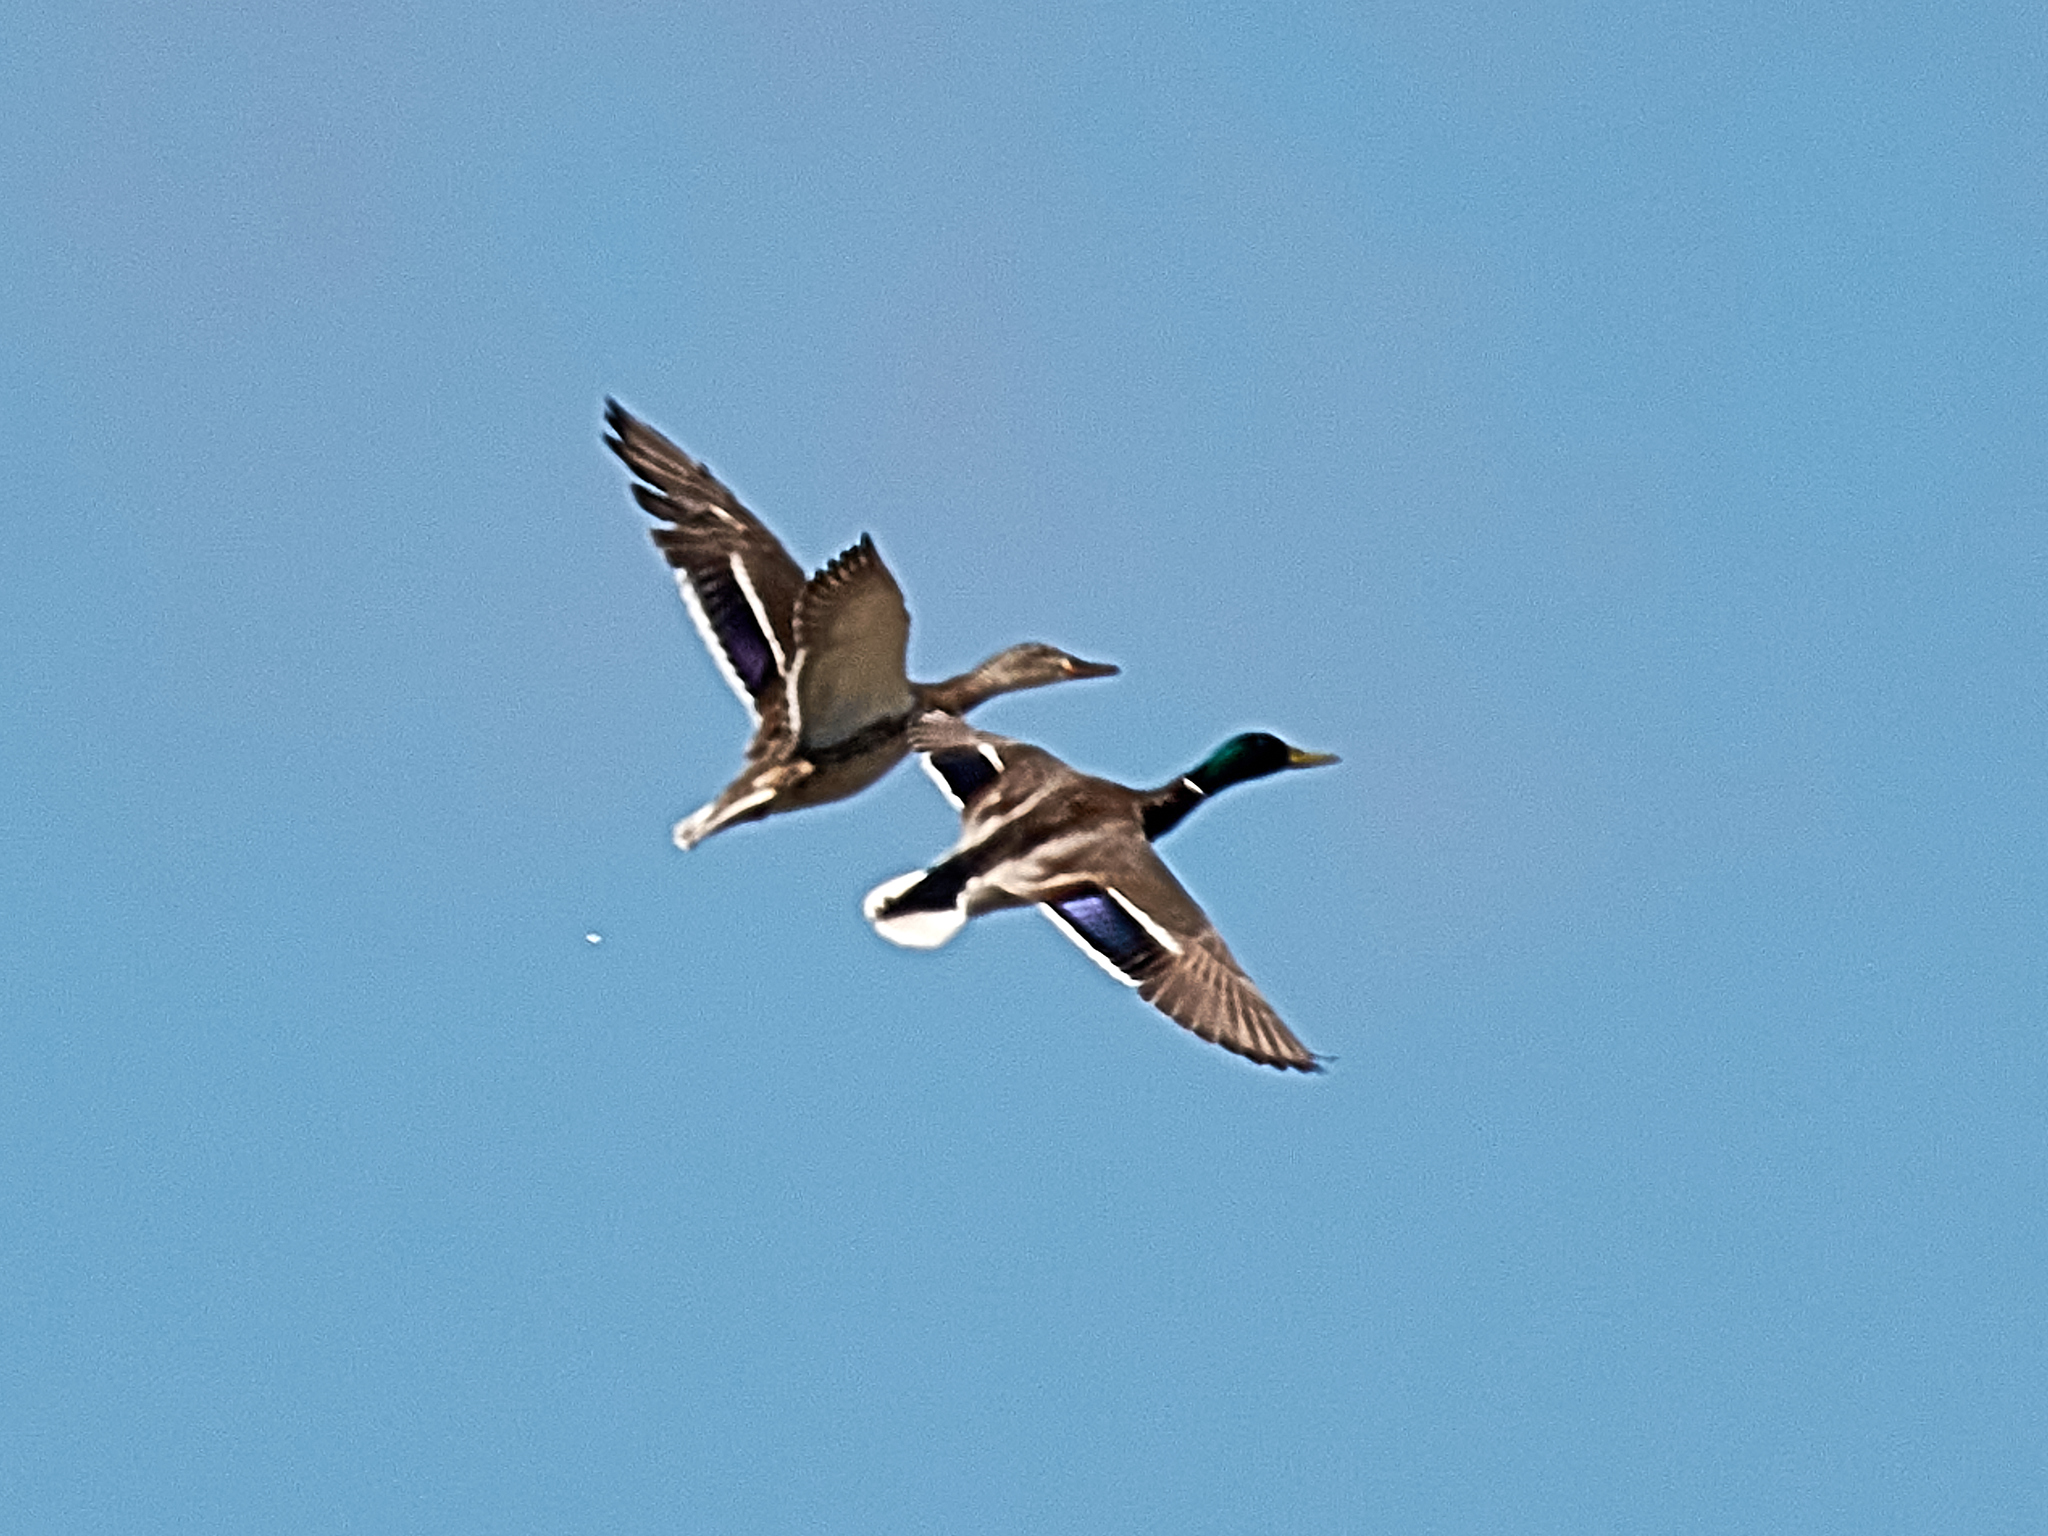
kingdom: Animalia
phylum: Chordata
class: Aves
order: Anseriformes
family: Anatidae
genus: Anas
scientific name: Anas platyrhynchos
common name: Mallard
